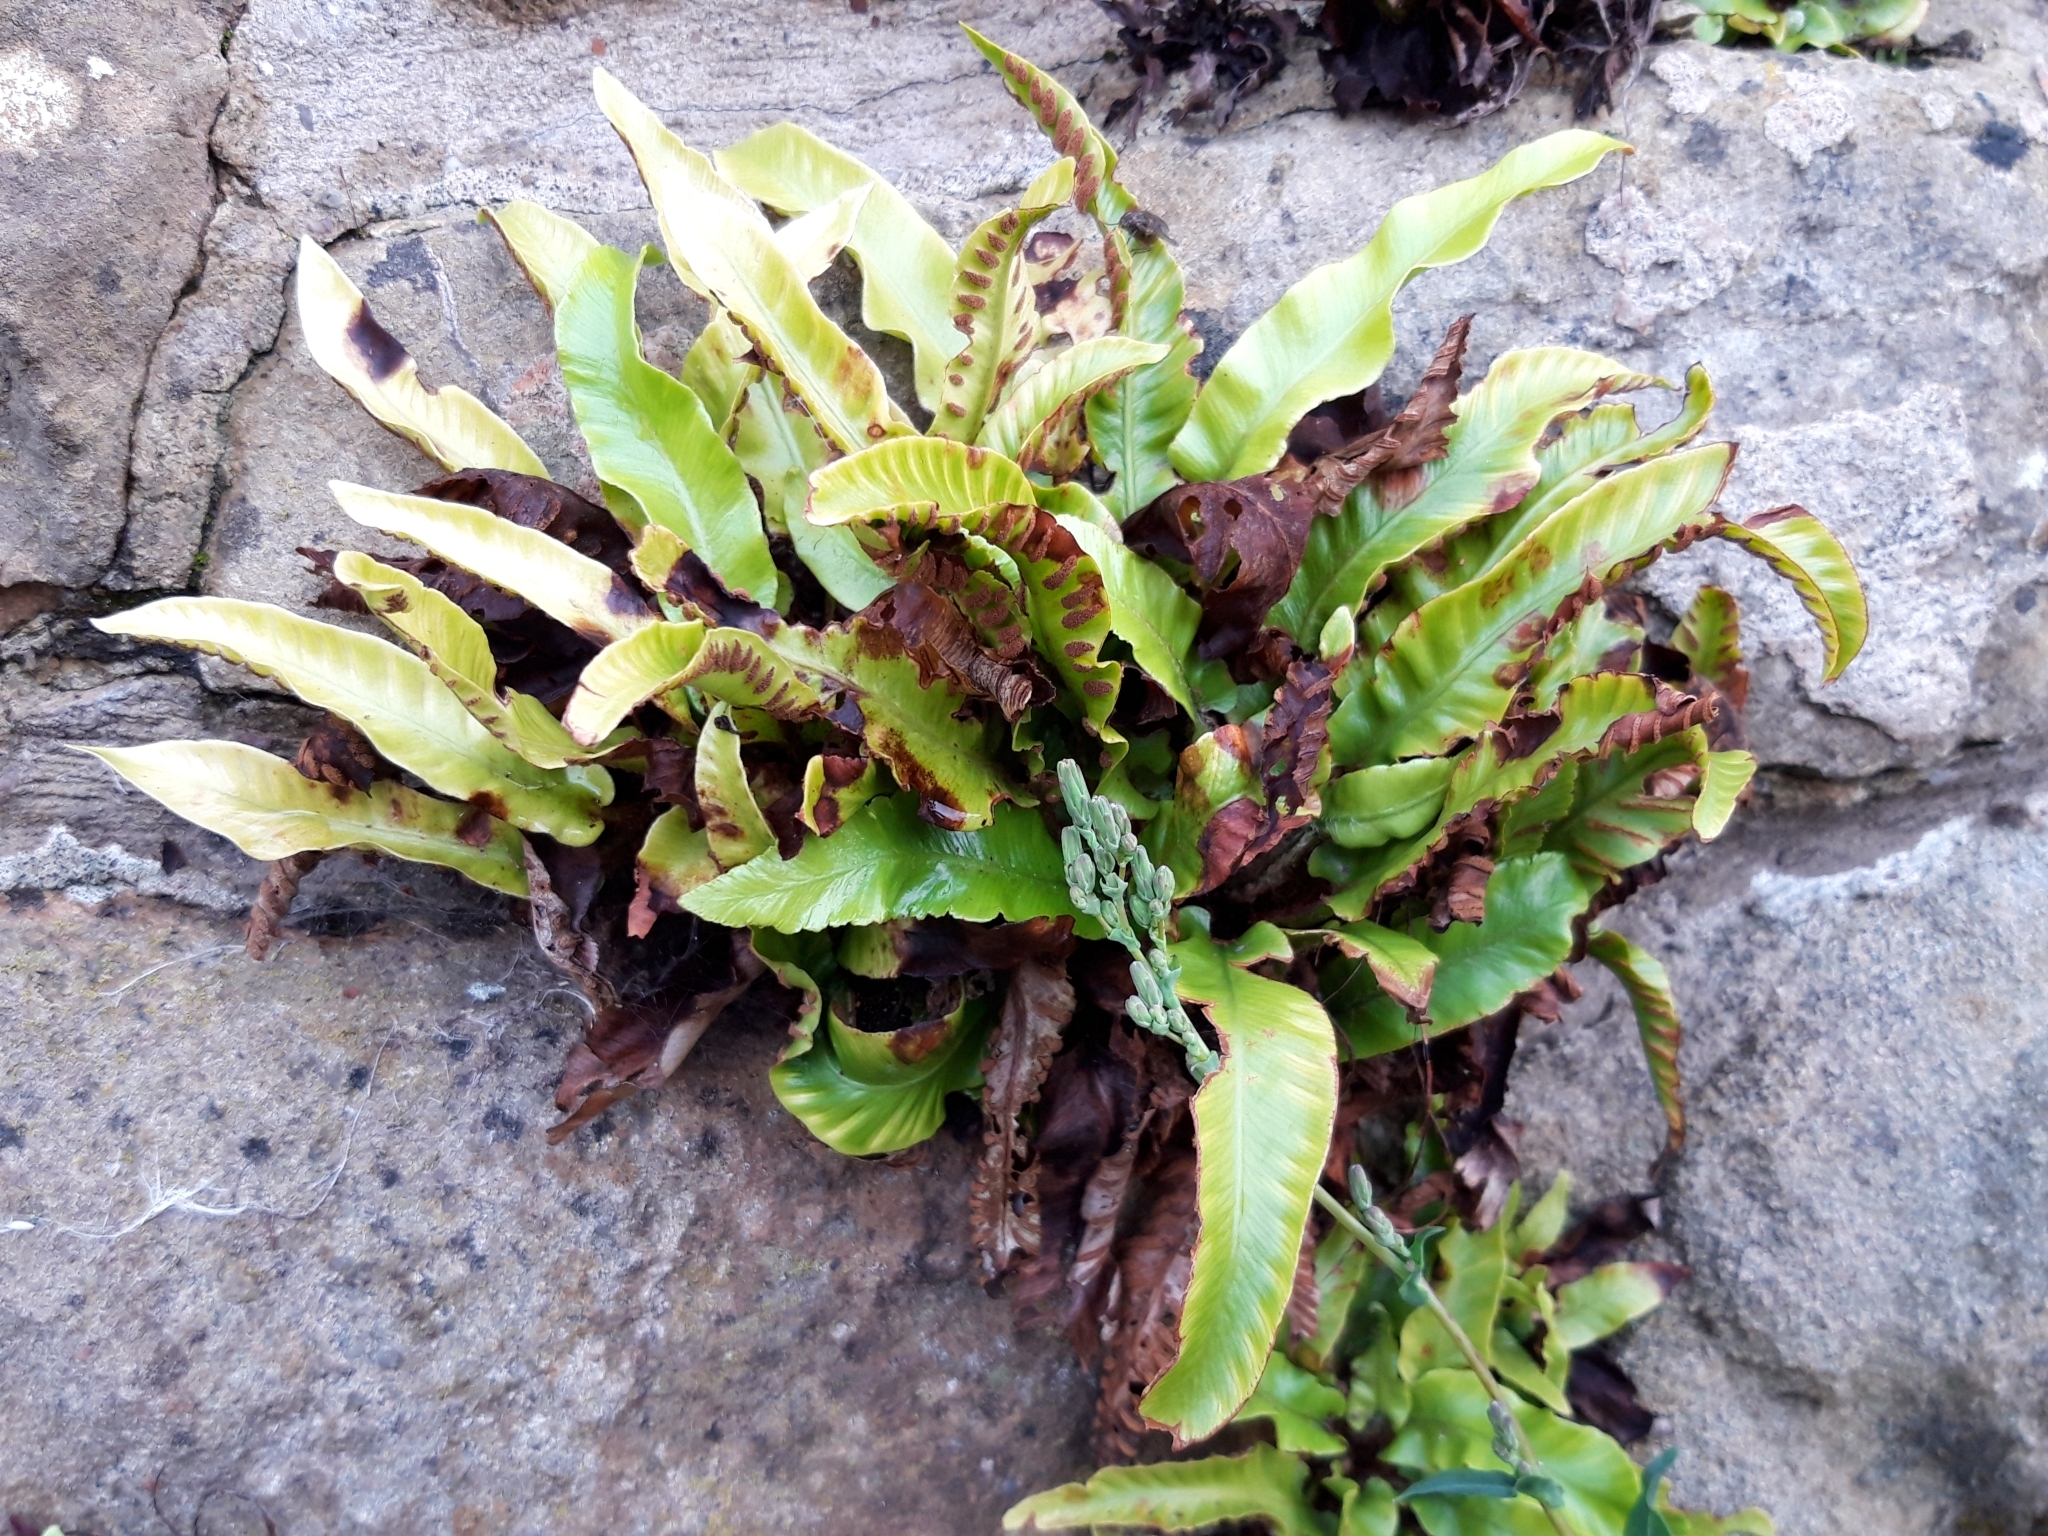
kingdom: Plantae
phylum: Tracheophyta
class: Polypodiopsida
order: Polypodiales
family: Aspleniaceae
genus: Asplenium
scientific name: Asplenium scolopendrium
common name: Hart's-tongue fern
